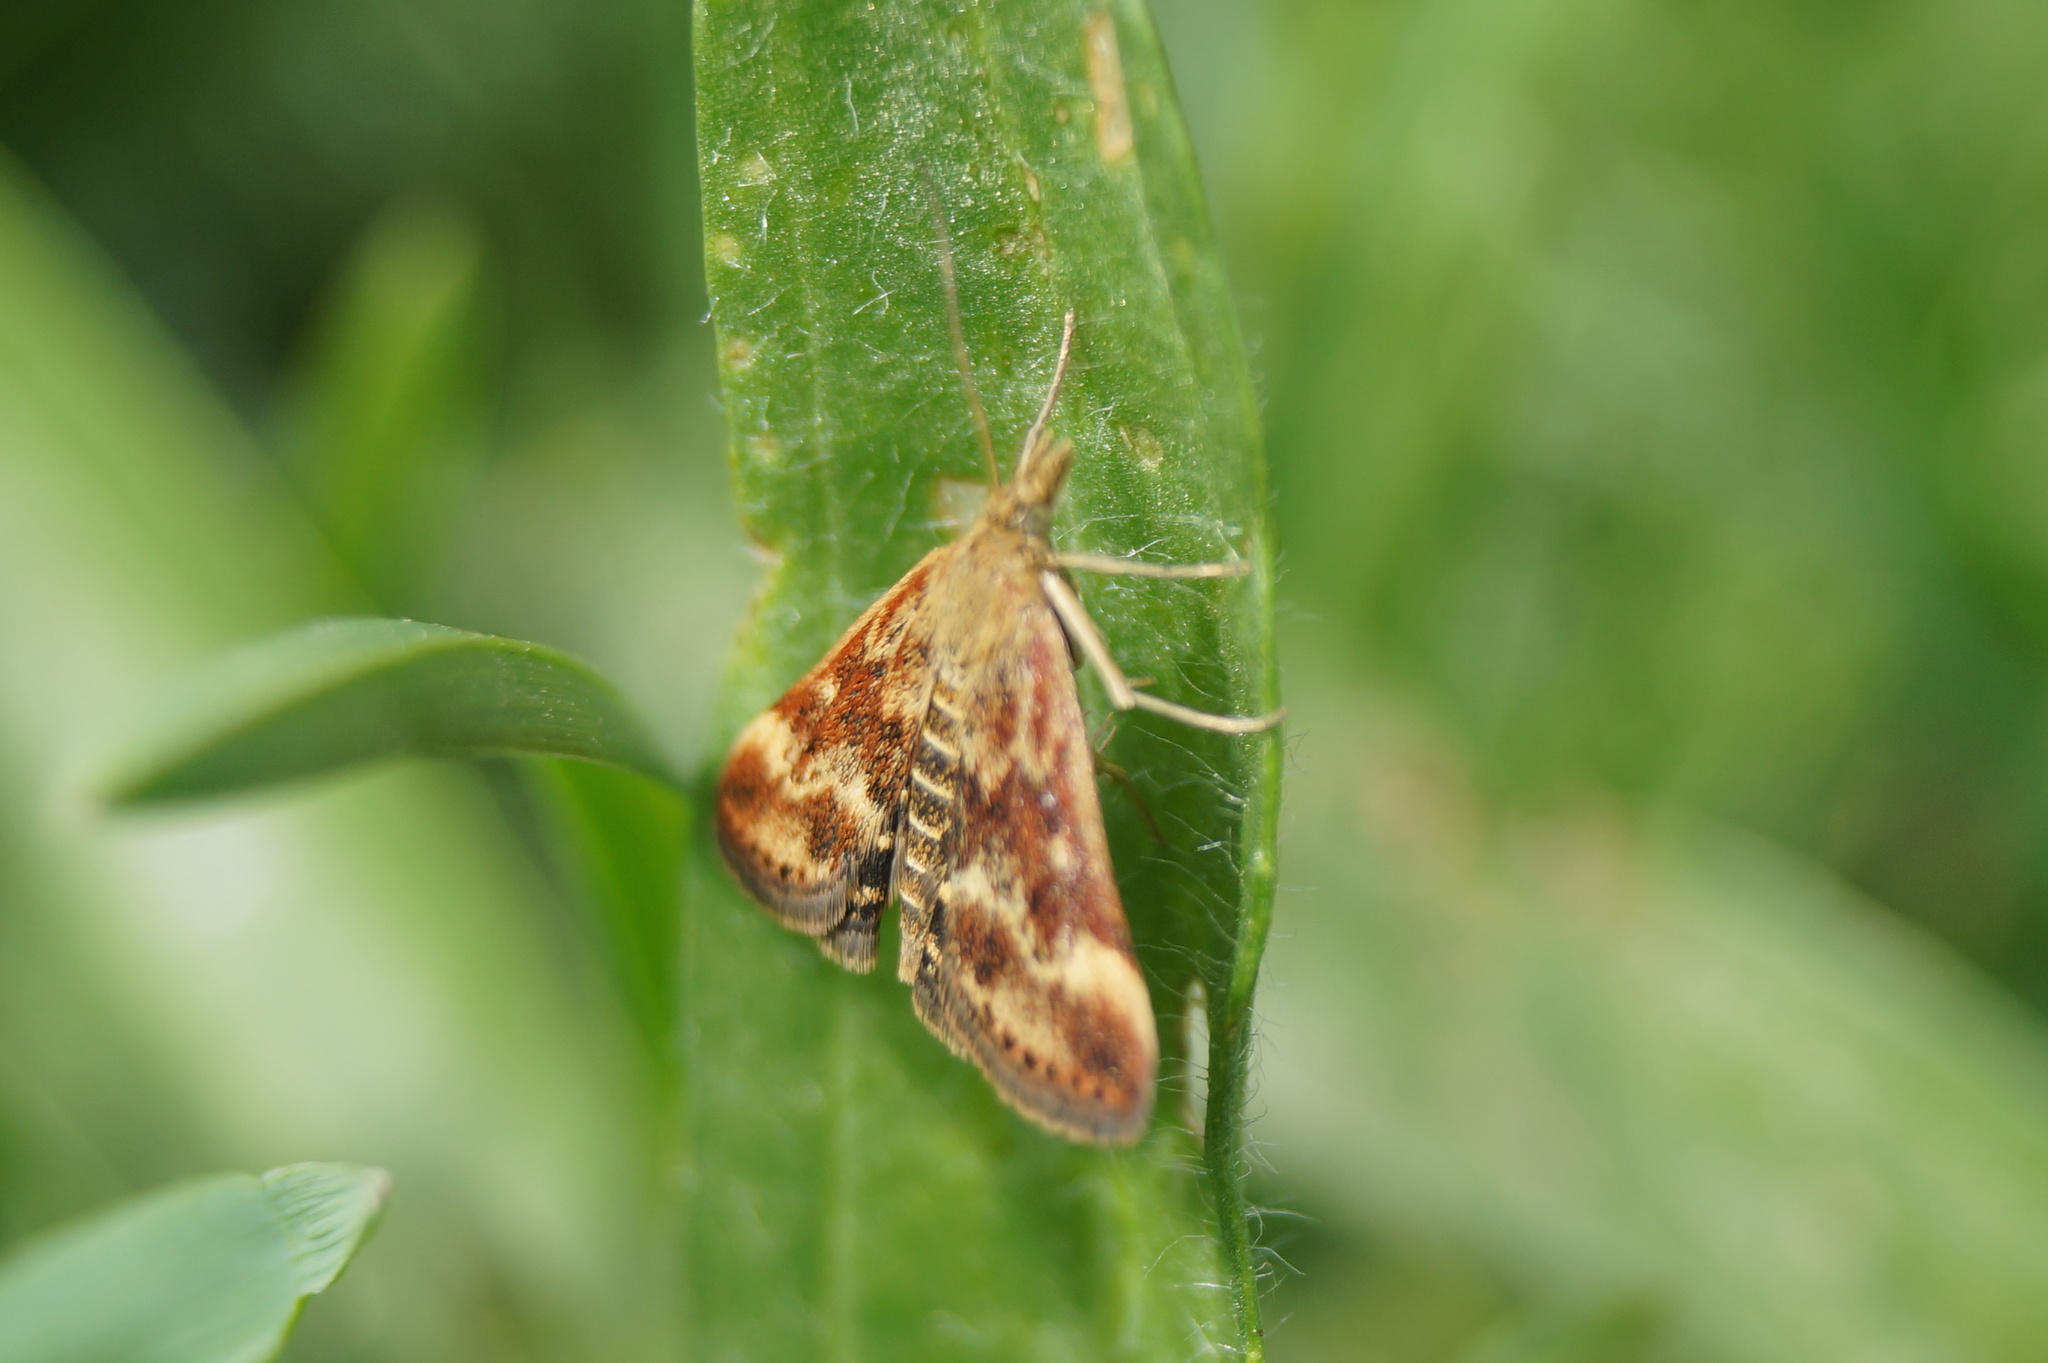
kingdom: Animalia
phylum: Arthropoda
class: Insecta
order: Lepidoptera
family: Crambidae
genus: Pyrausta
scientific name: Pyrausta despicata
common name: Straw-barred pearl
